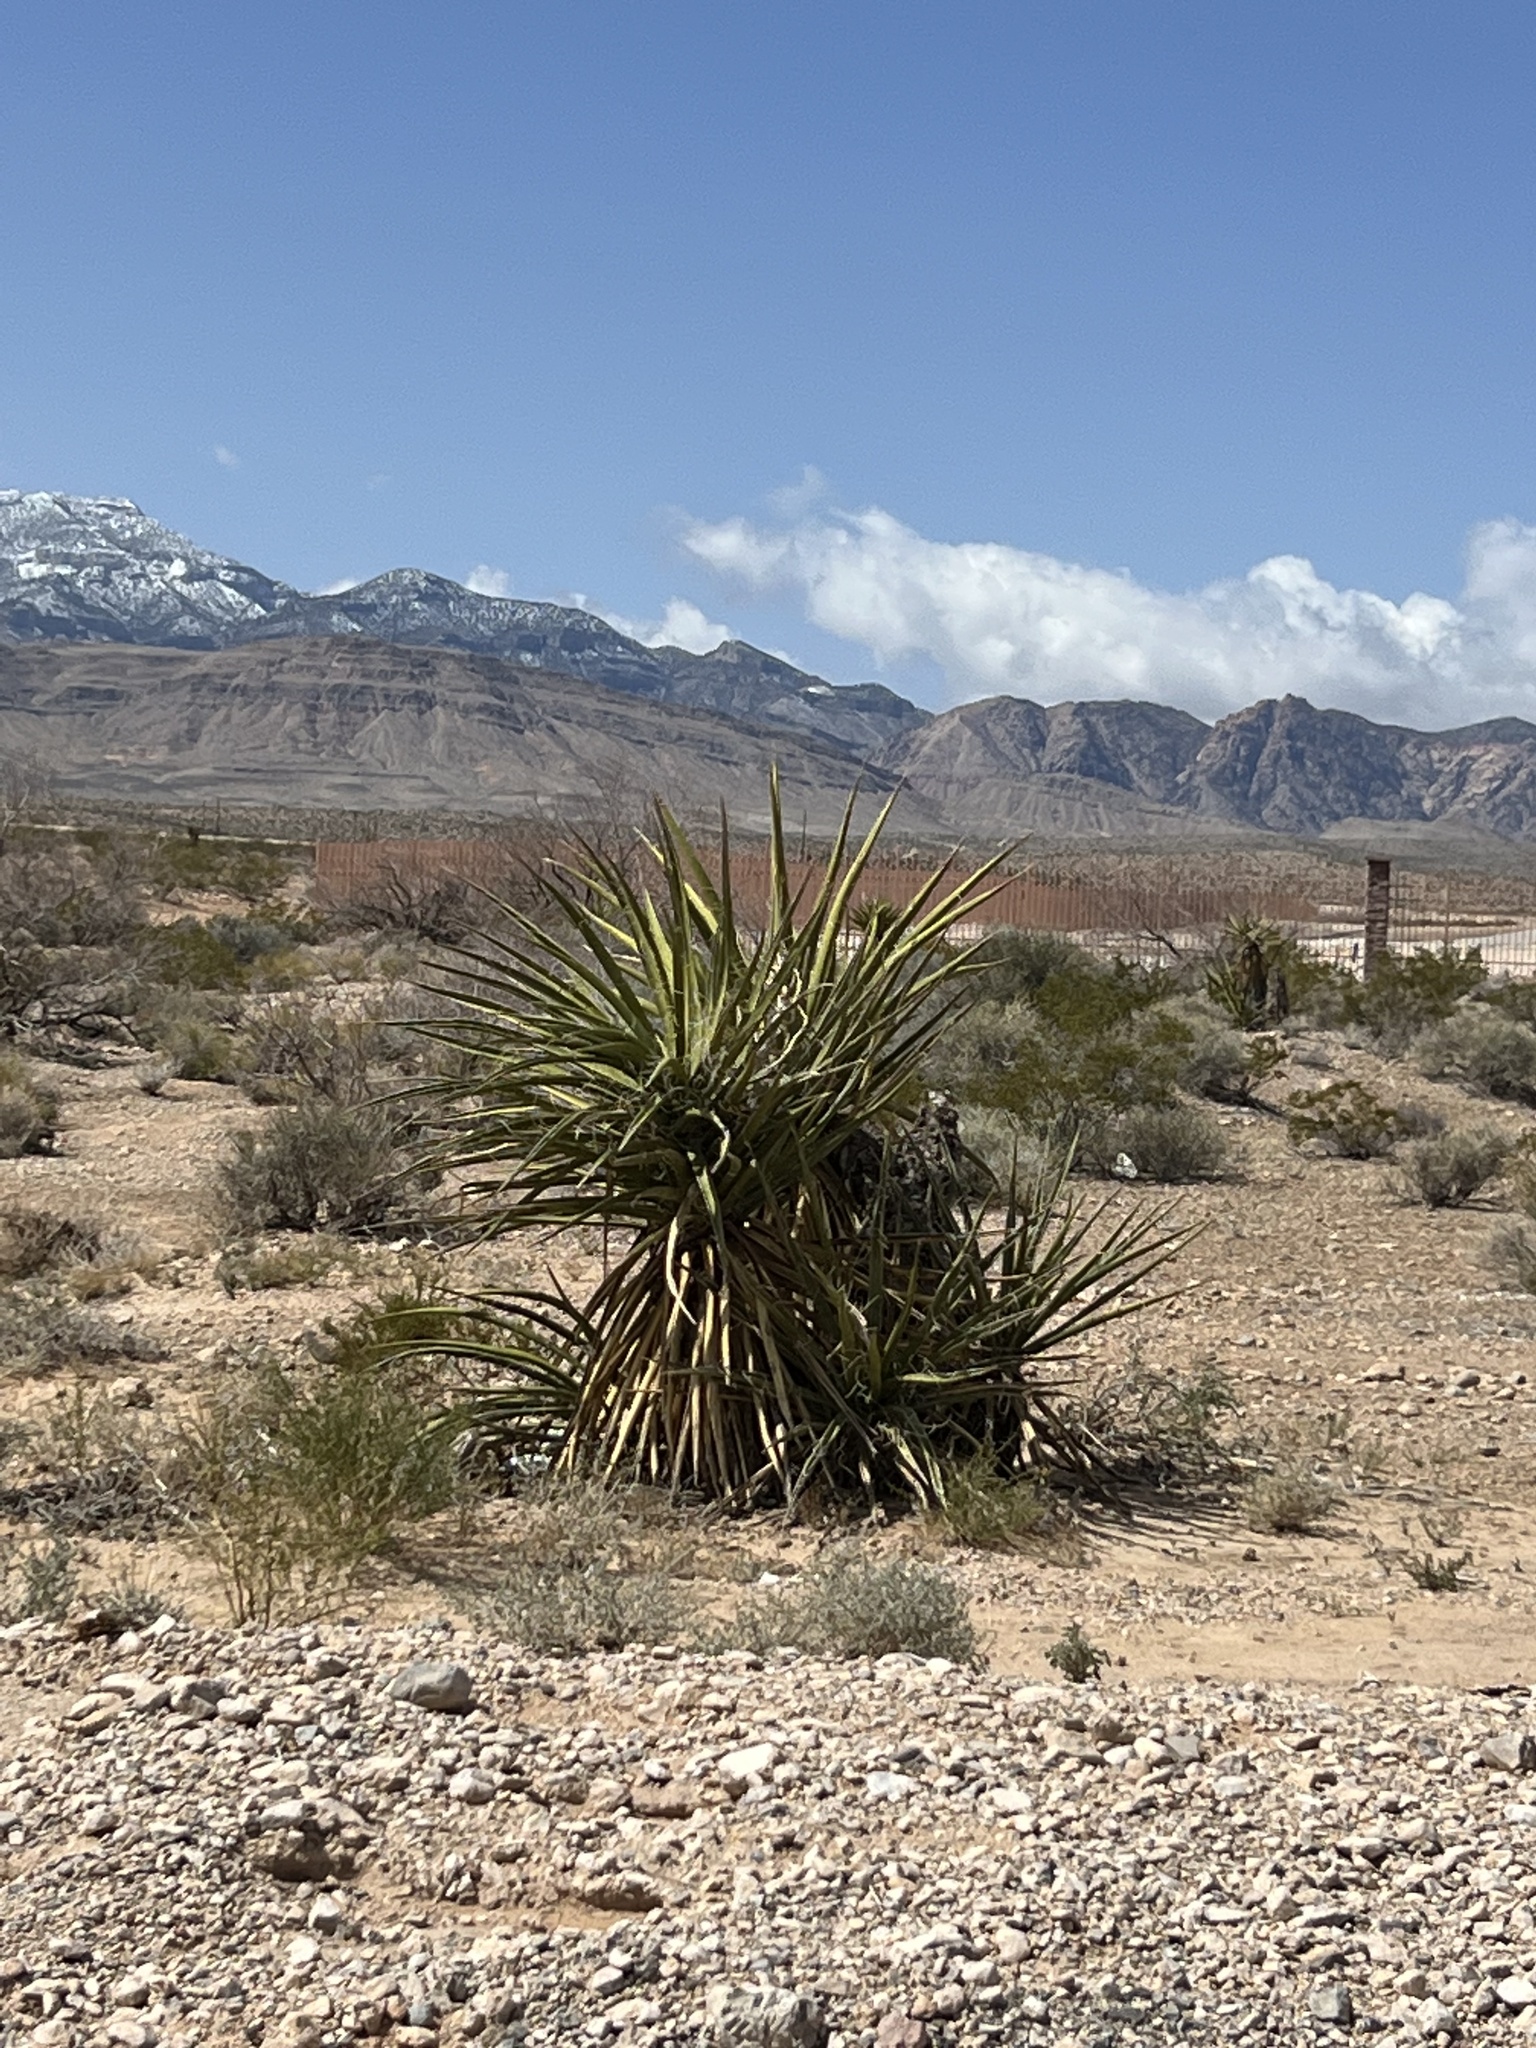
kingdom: Plantae
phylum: Tracheophyta
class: Liliopsida
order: Asparagales
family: Asparagaceae
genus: Yucca
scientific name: Yucca schidigera
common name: Mojave yucca
